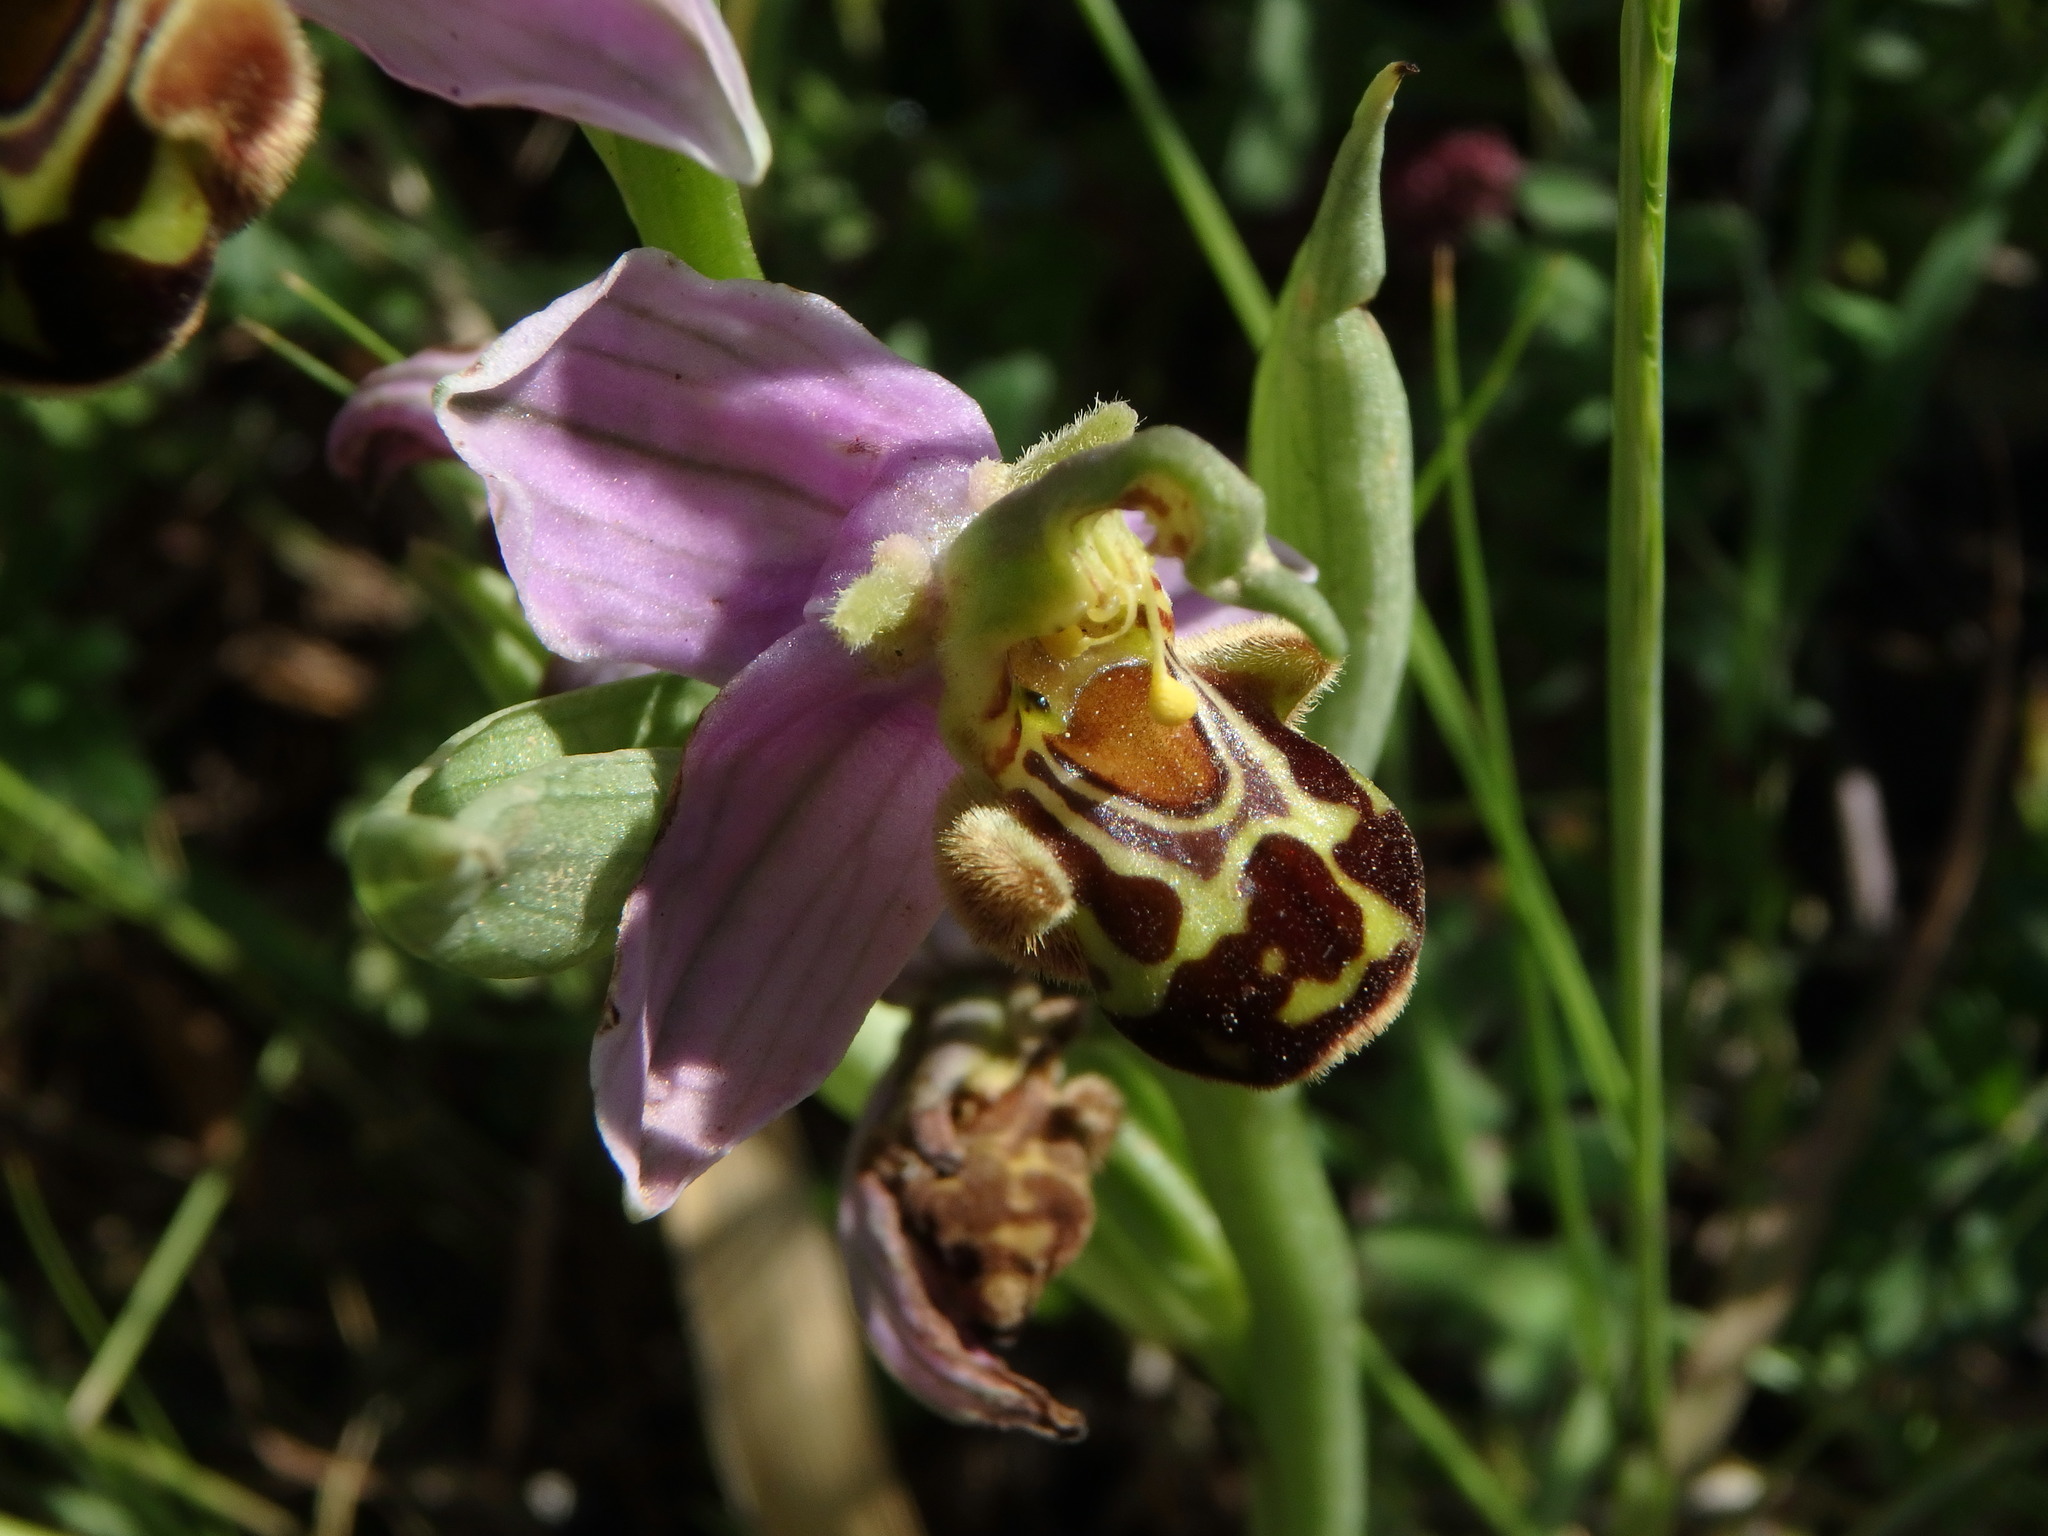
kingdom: Plantae
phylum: Tracheophyta
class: Liliopsida
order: Asparagales
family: Orchidaceae
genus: Ophrys
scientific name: Ophrys apifera
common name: Bee orchid
